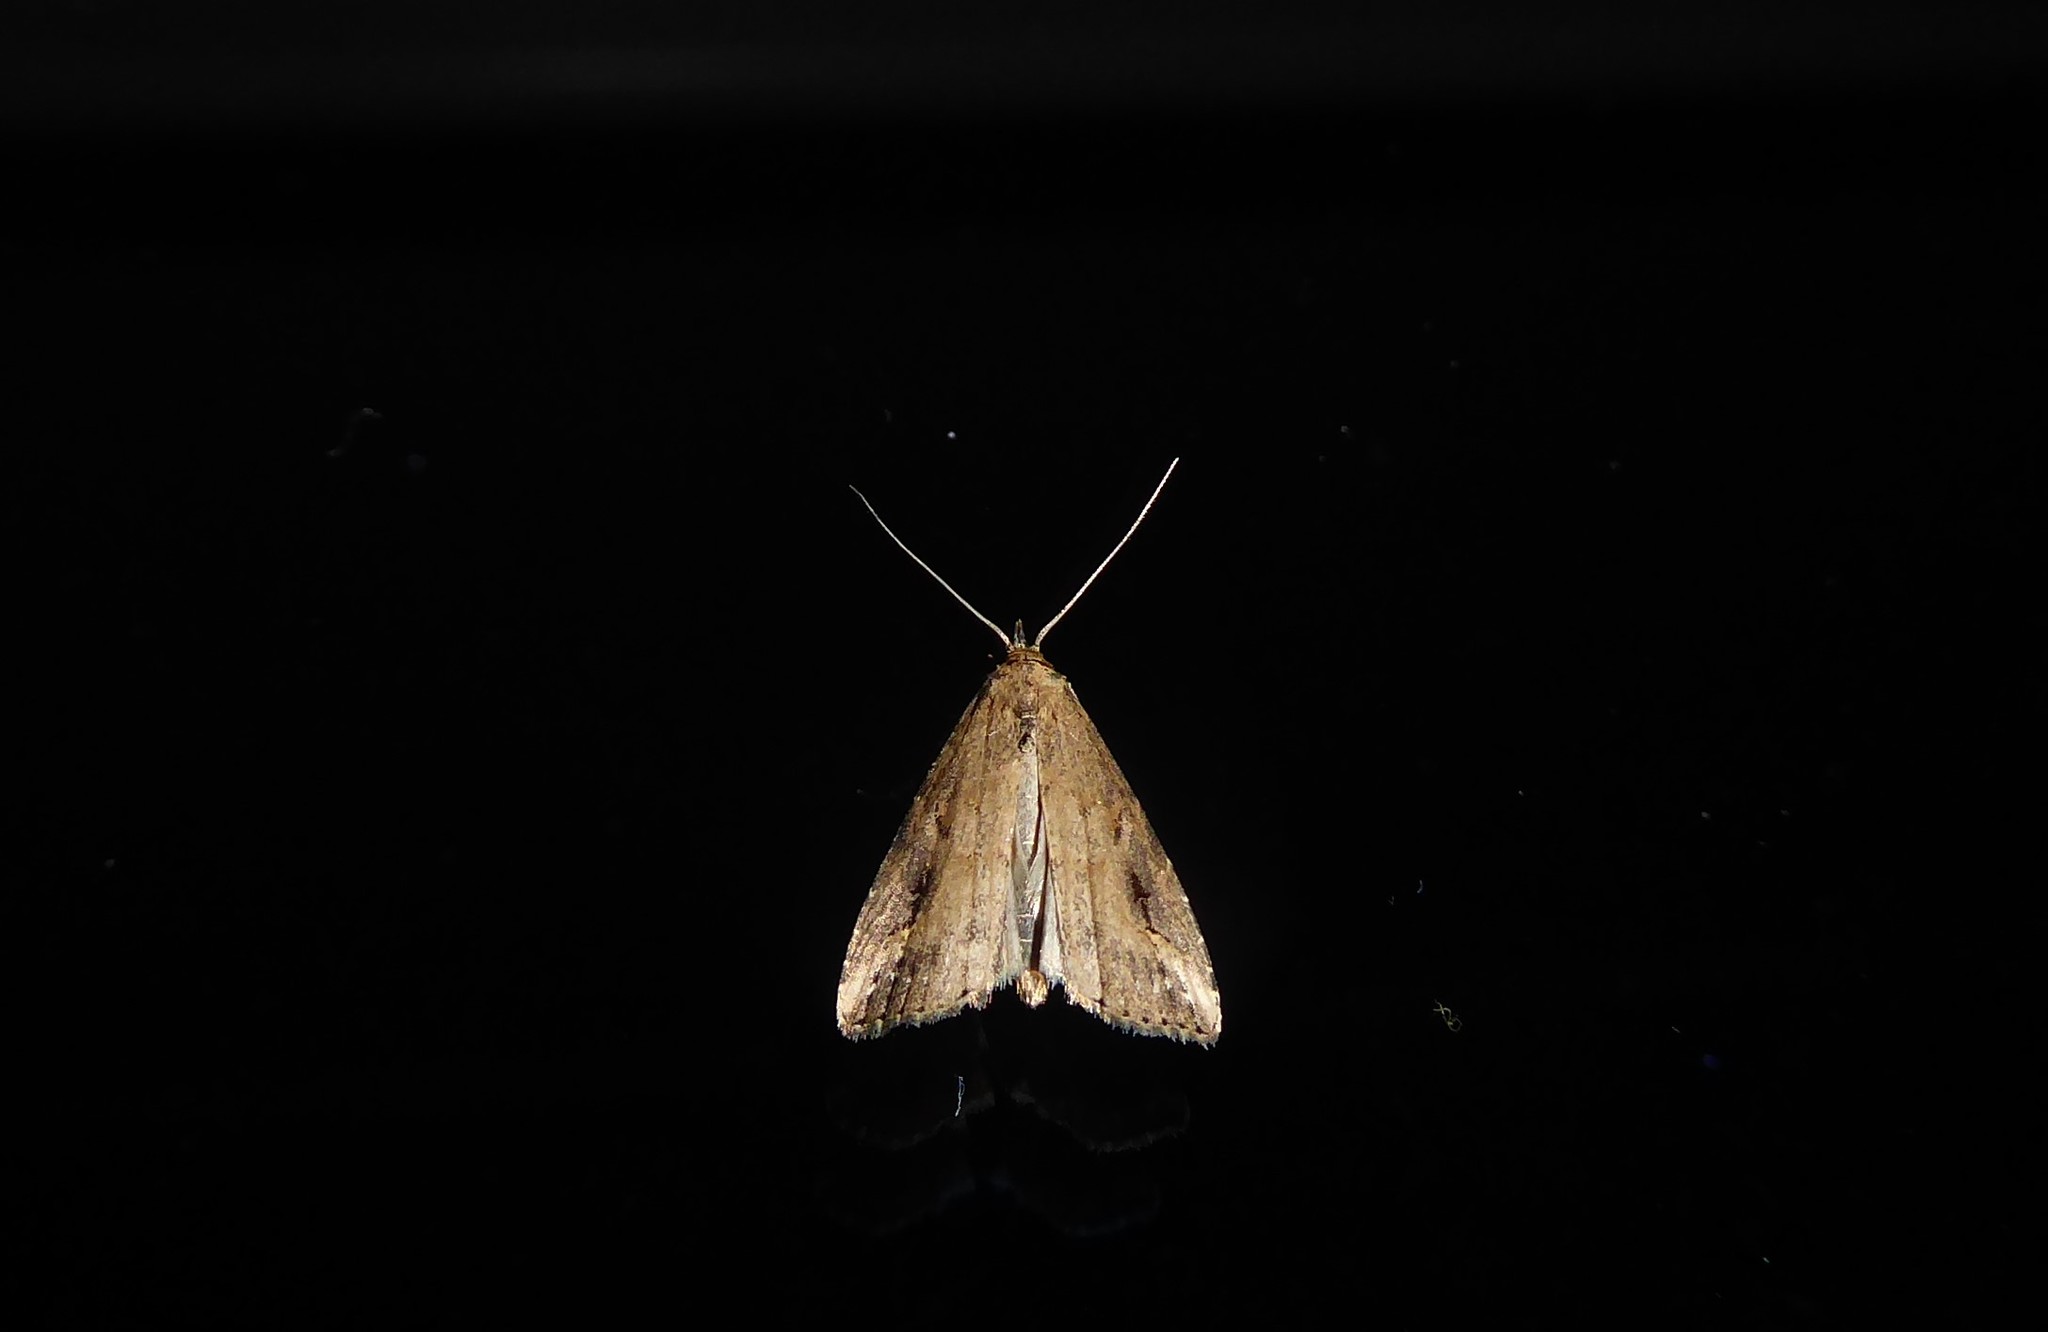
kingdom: Animalia
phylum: Arthropoda
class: Insecta
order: Lepidoptera
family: Erebidae
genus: Schrankia
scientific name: Schrankia costaestrigalis
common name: Pinion-streaked snout
